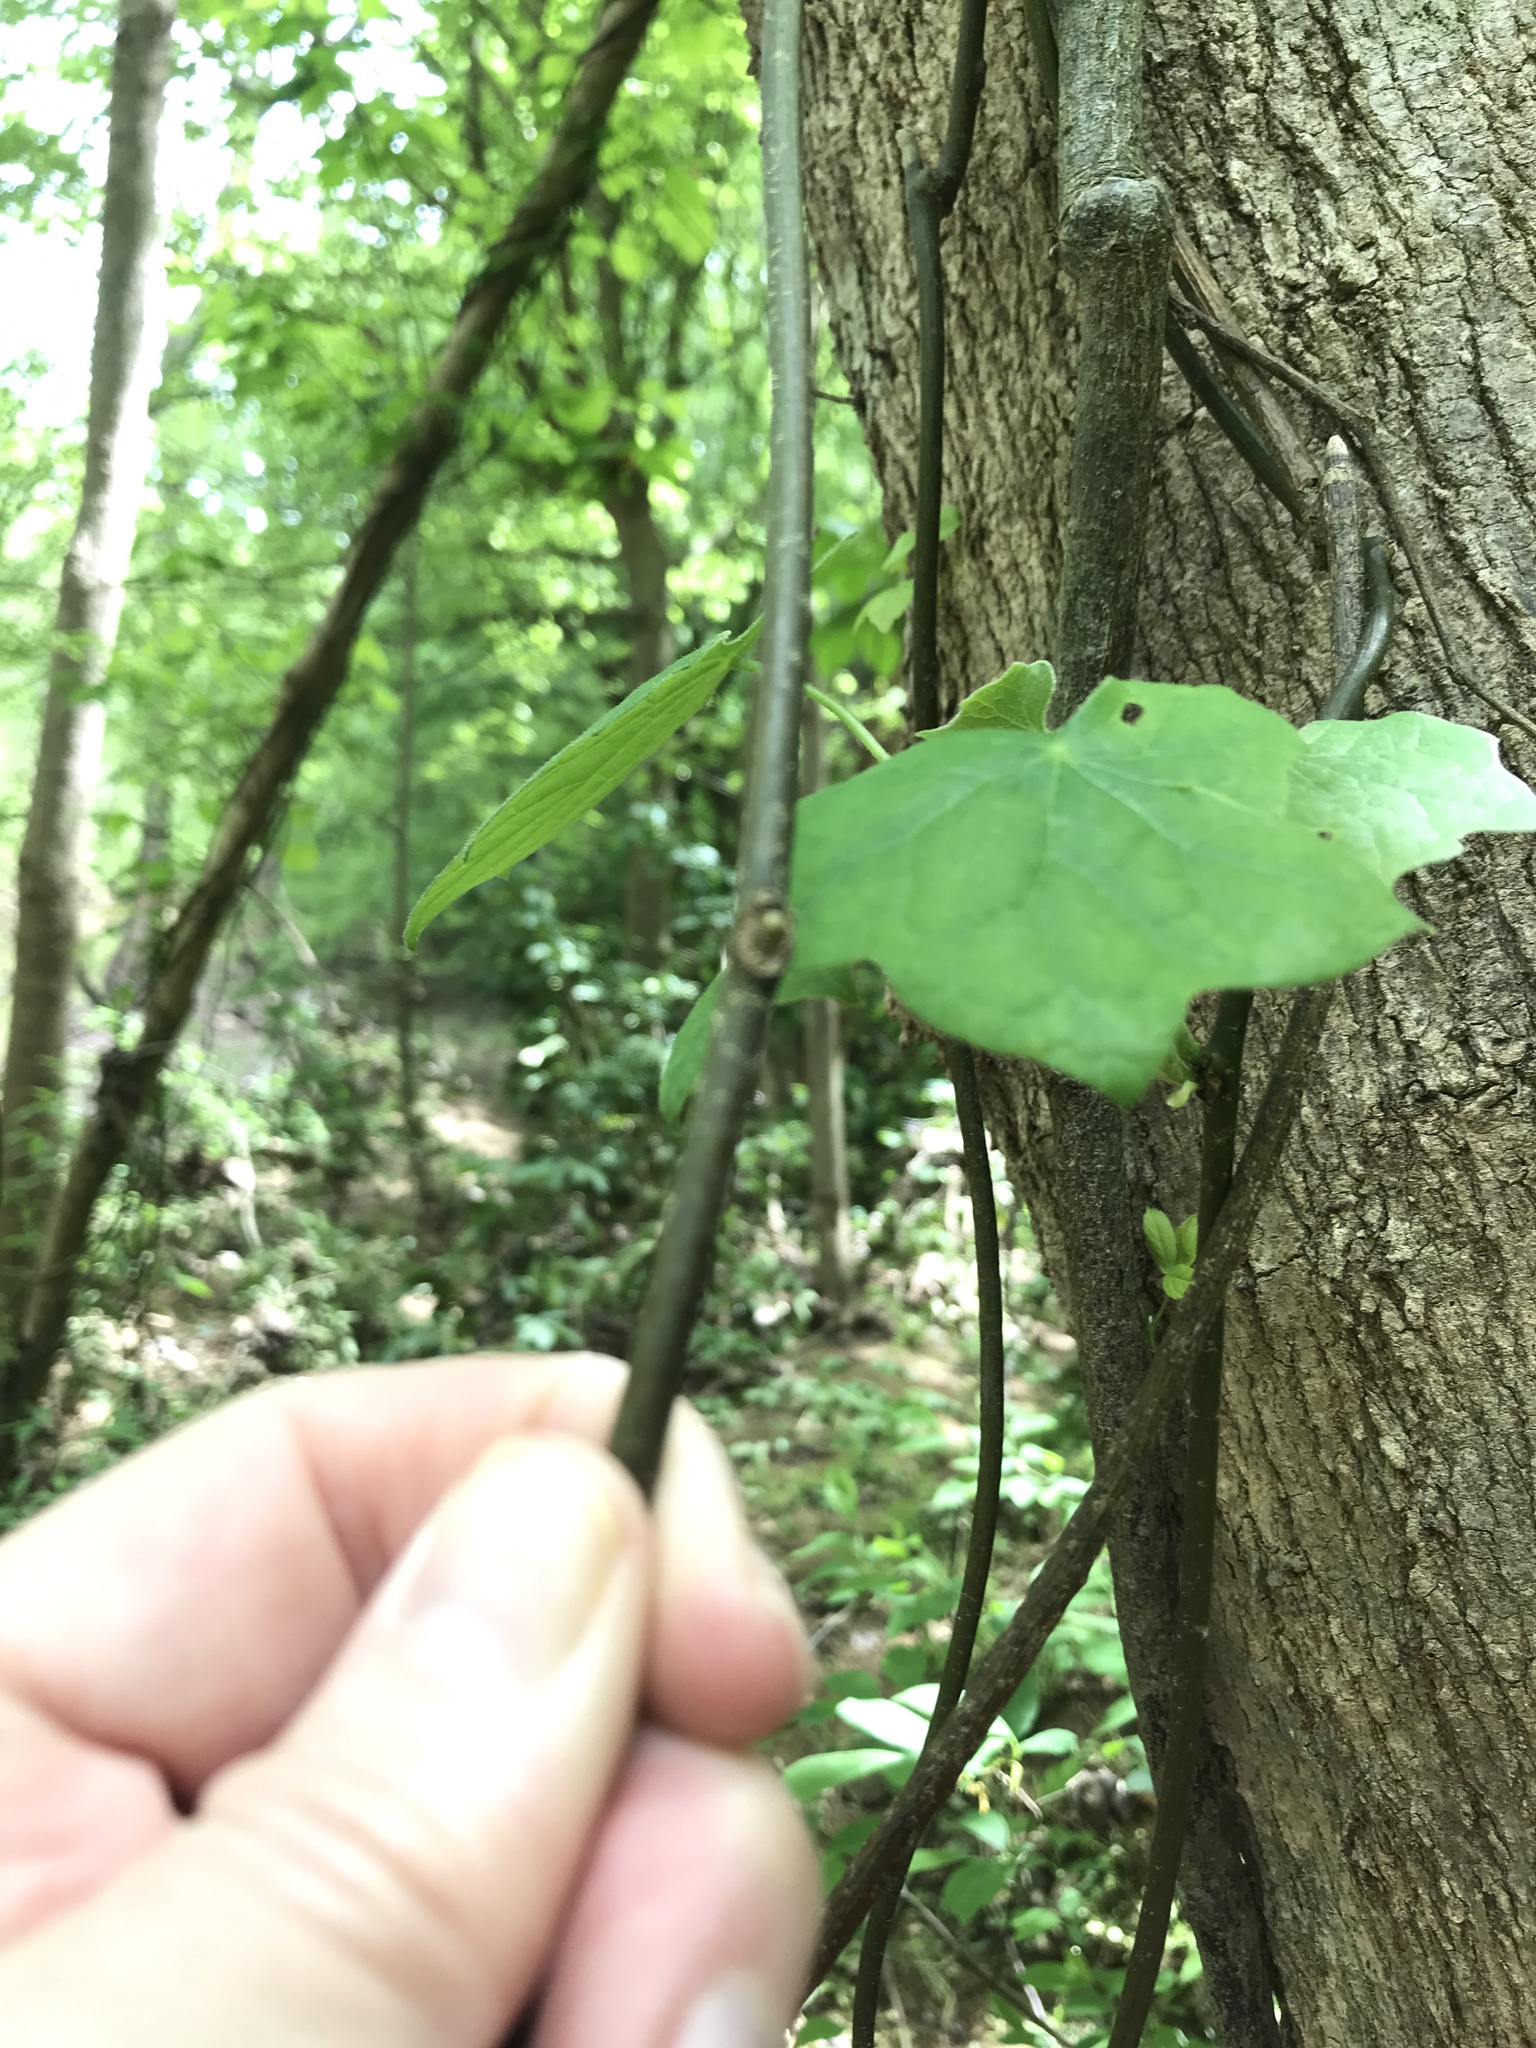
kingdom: Plantae
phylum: Tracheophyta
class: Magnoliopsida
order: Ranunculales
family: Menispermaceae
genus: Menispermum
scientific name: Menispermum canadense
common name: Moonseed
